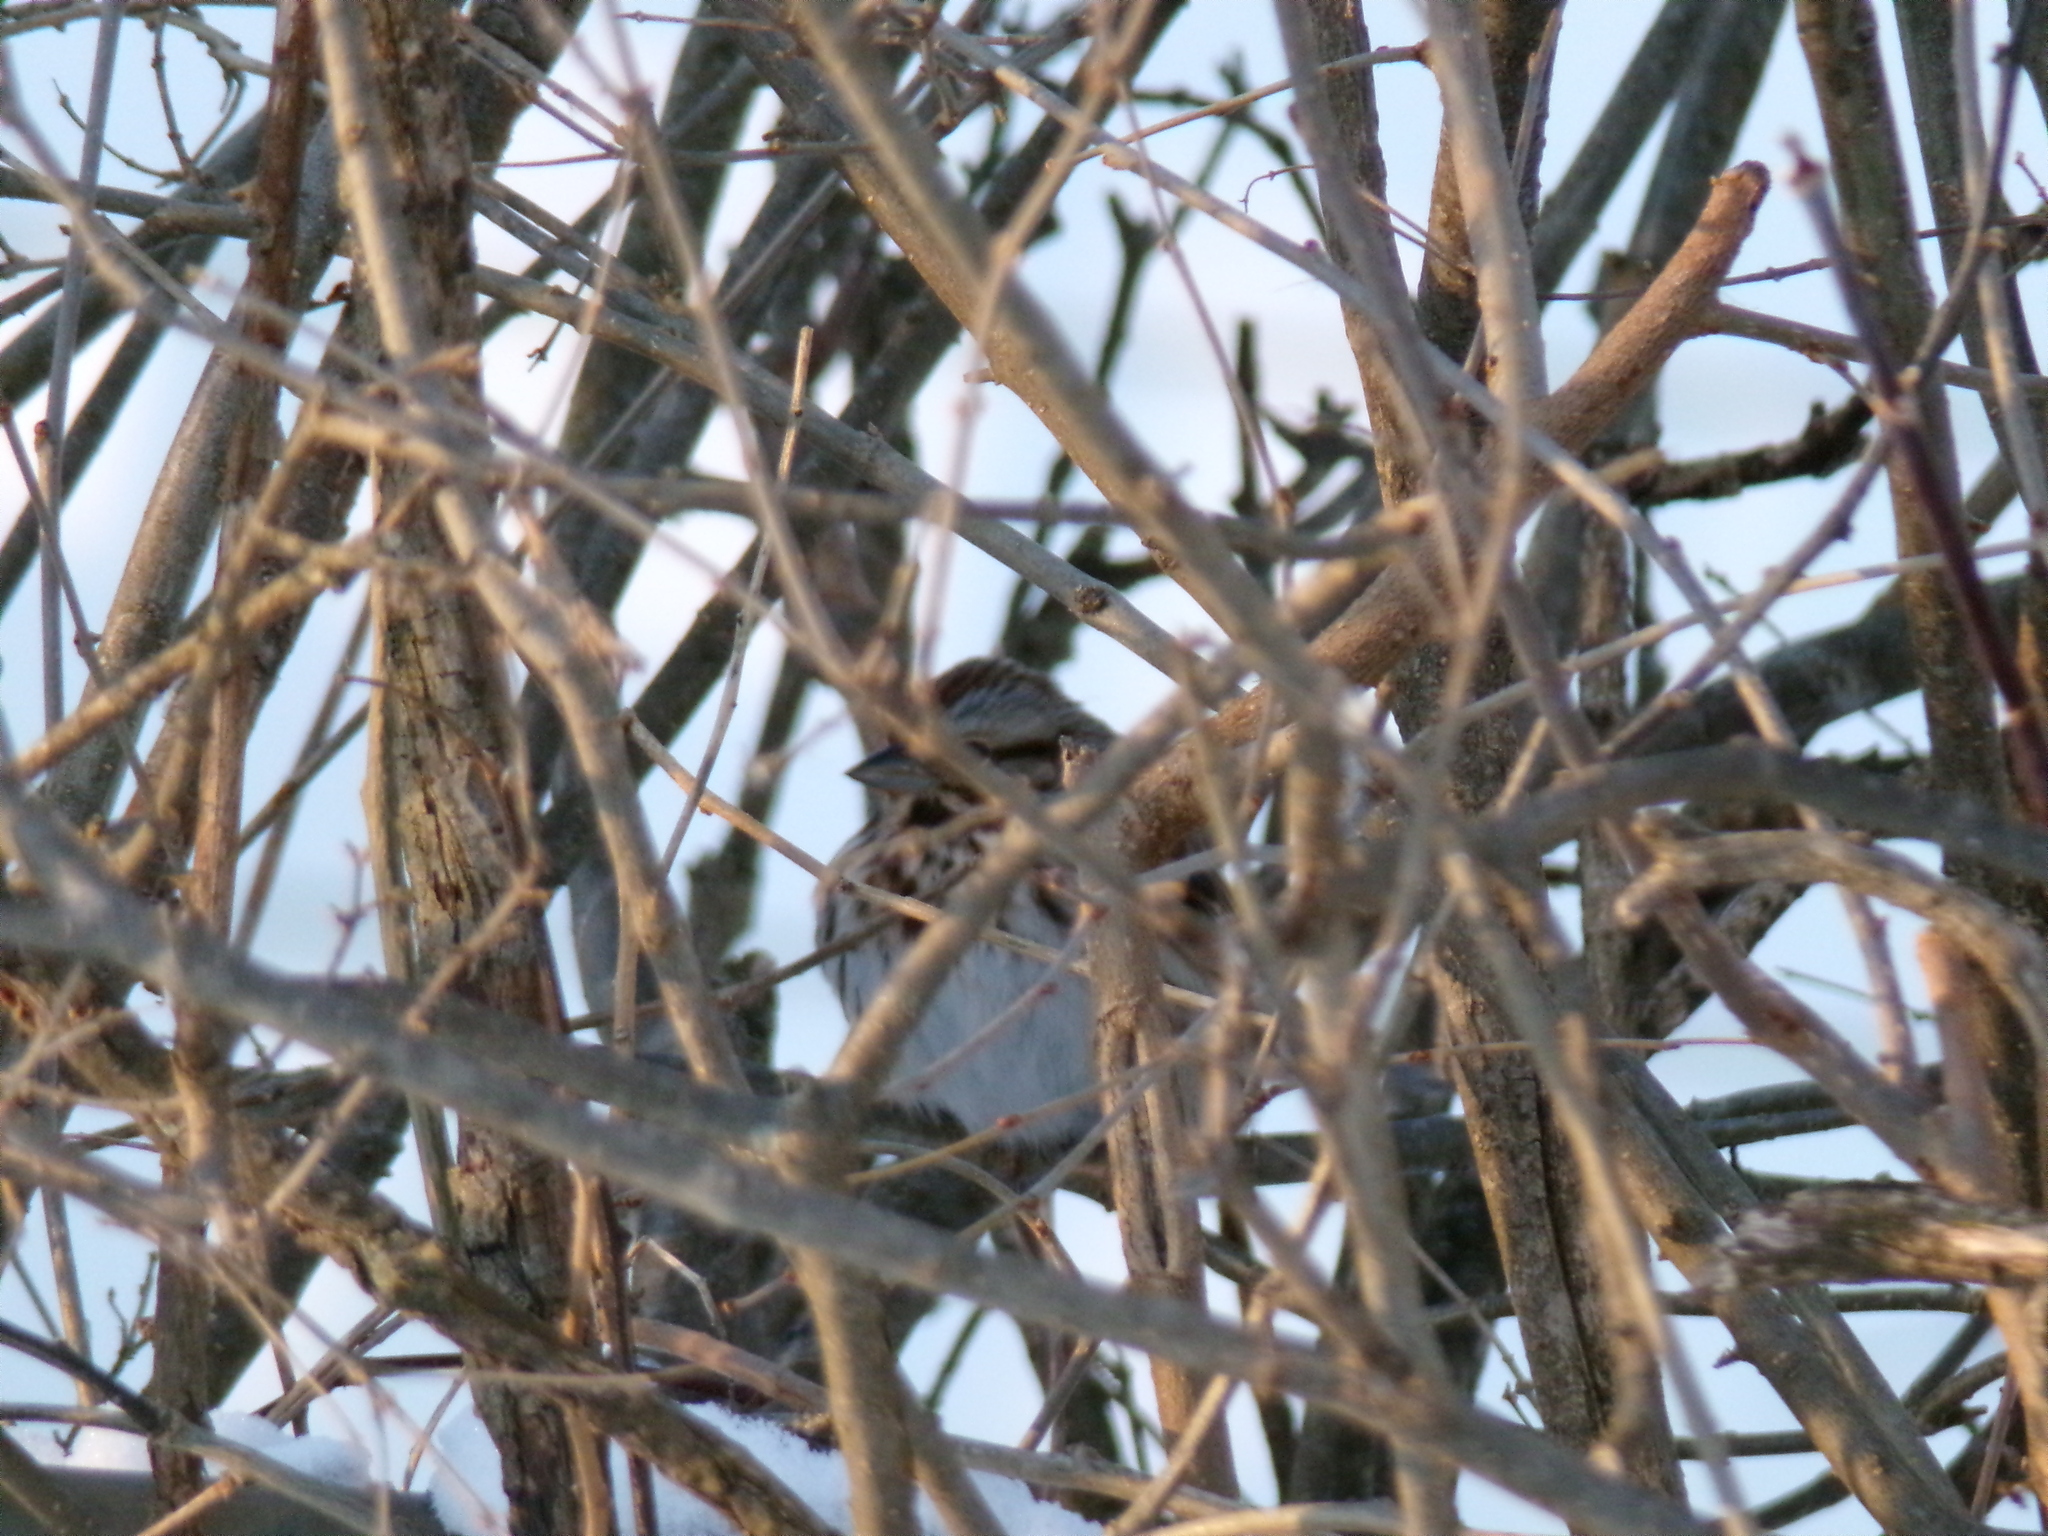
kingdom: Animalia
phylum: Chordata
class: Aves
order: Passeriformes
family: Passerellidae
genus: Melospiza
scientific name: Melospiza melodia
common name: Song sparrow
